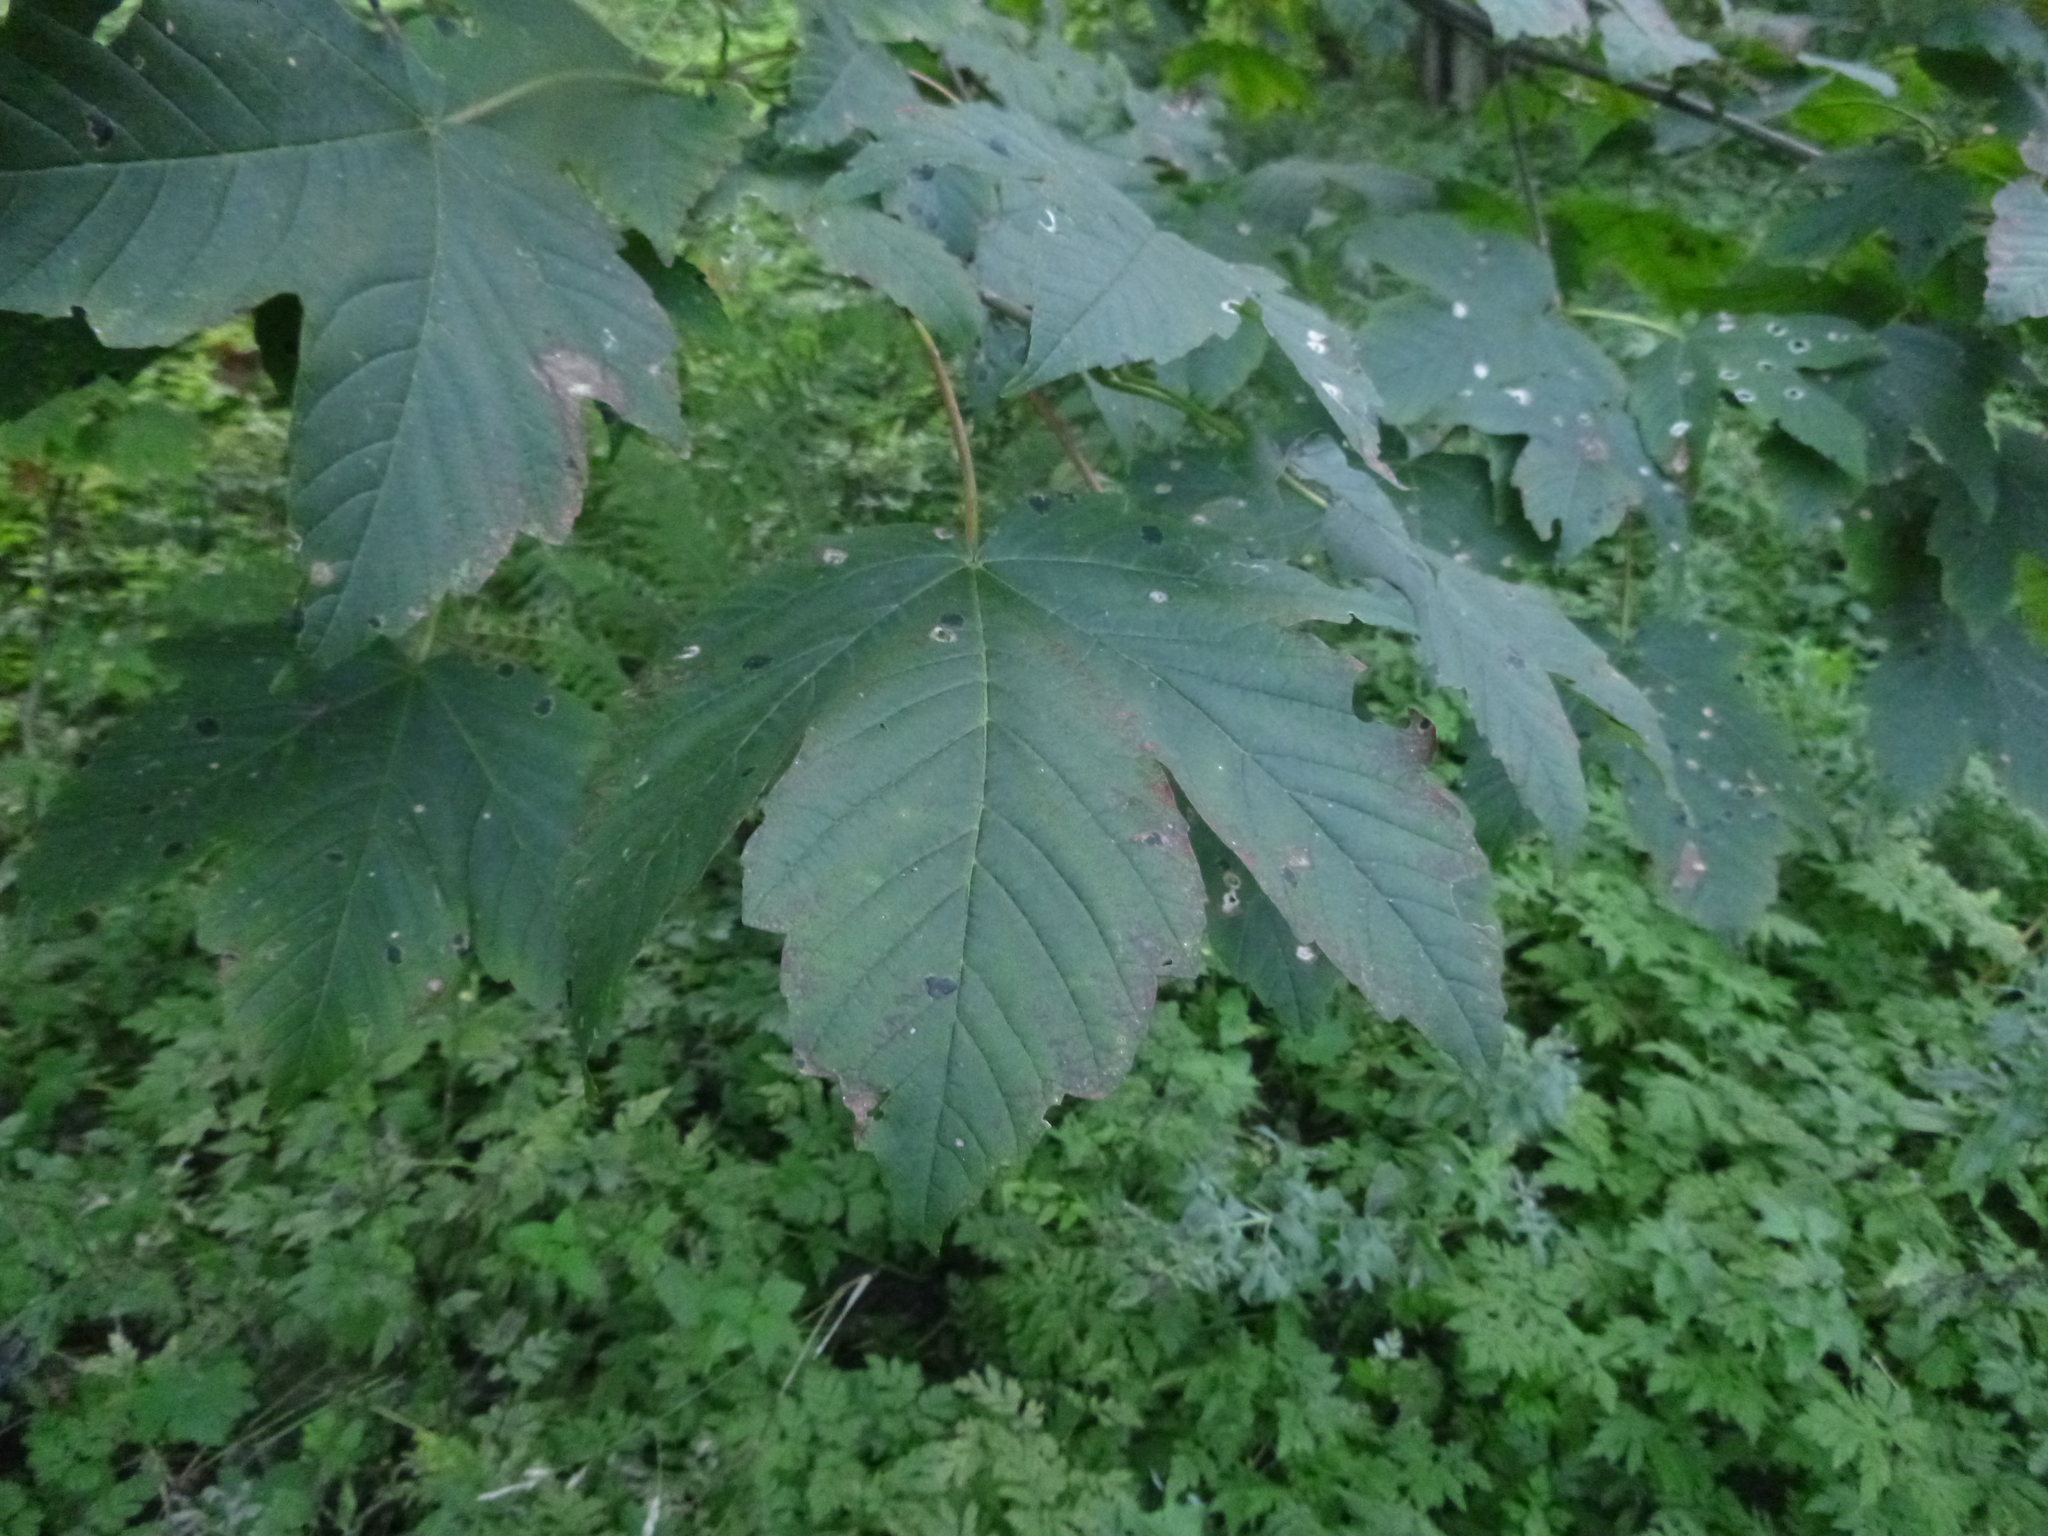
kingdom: Plantae
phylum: Tracheophyta
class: Magnoliopsida
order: Sapindales
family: Sapindaceae
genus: Acer
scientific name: Acer pseudoplatanus
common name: Sycamore
